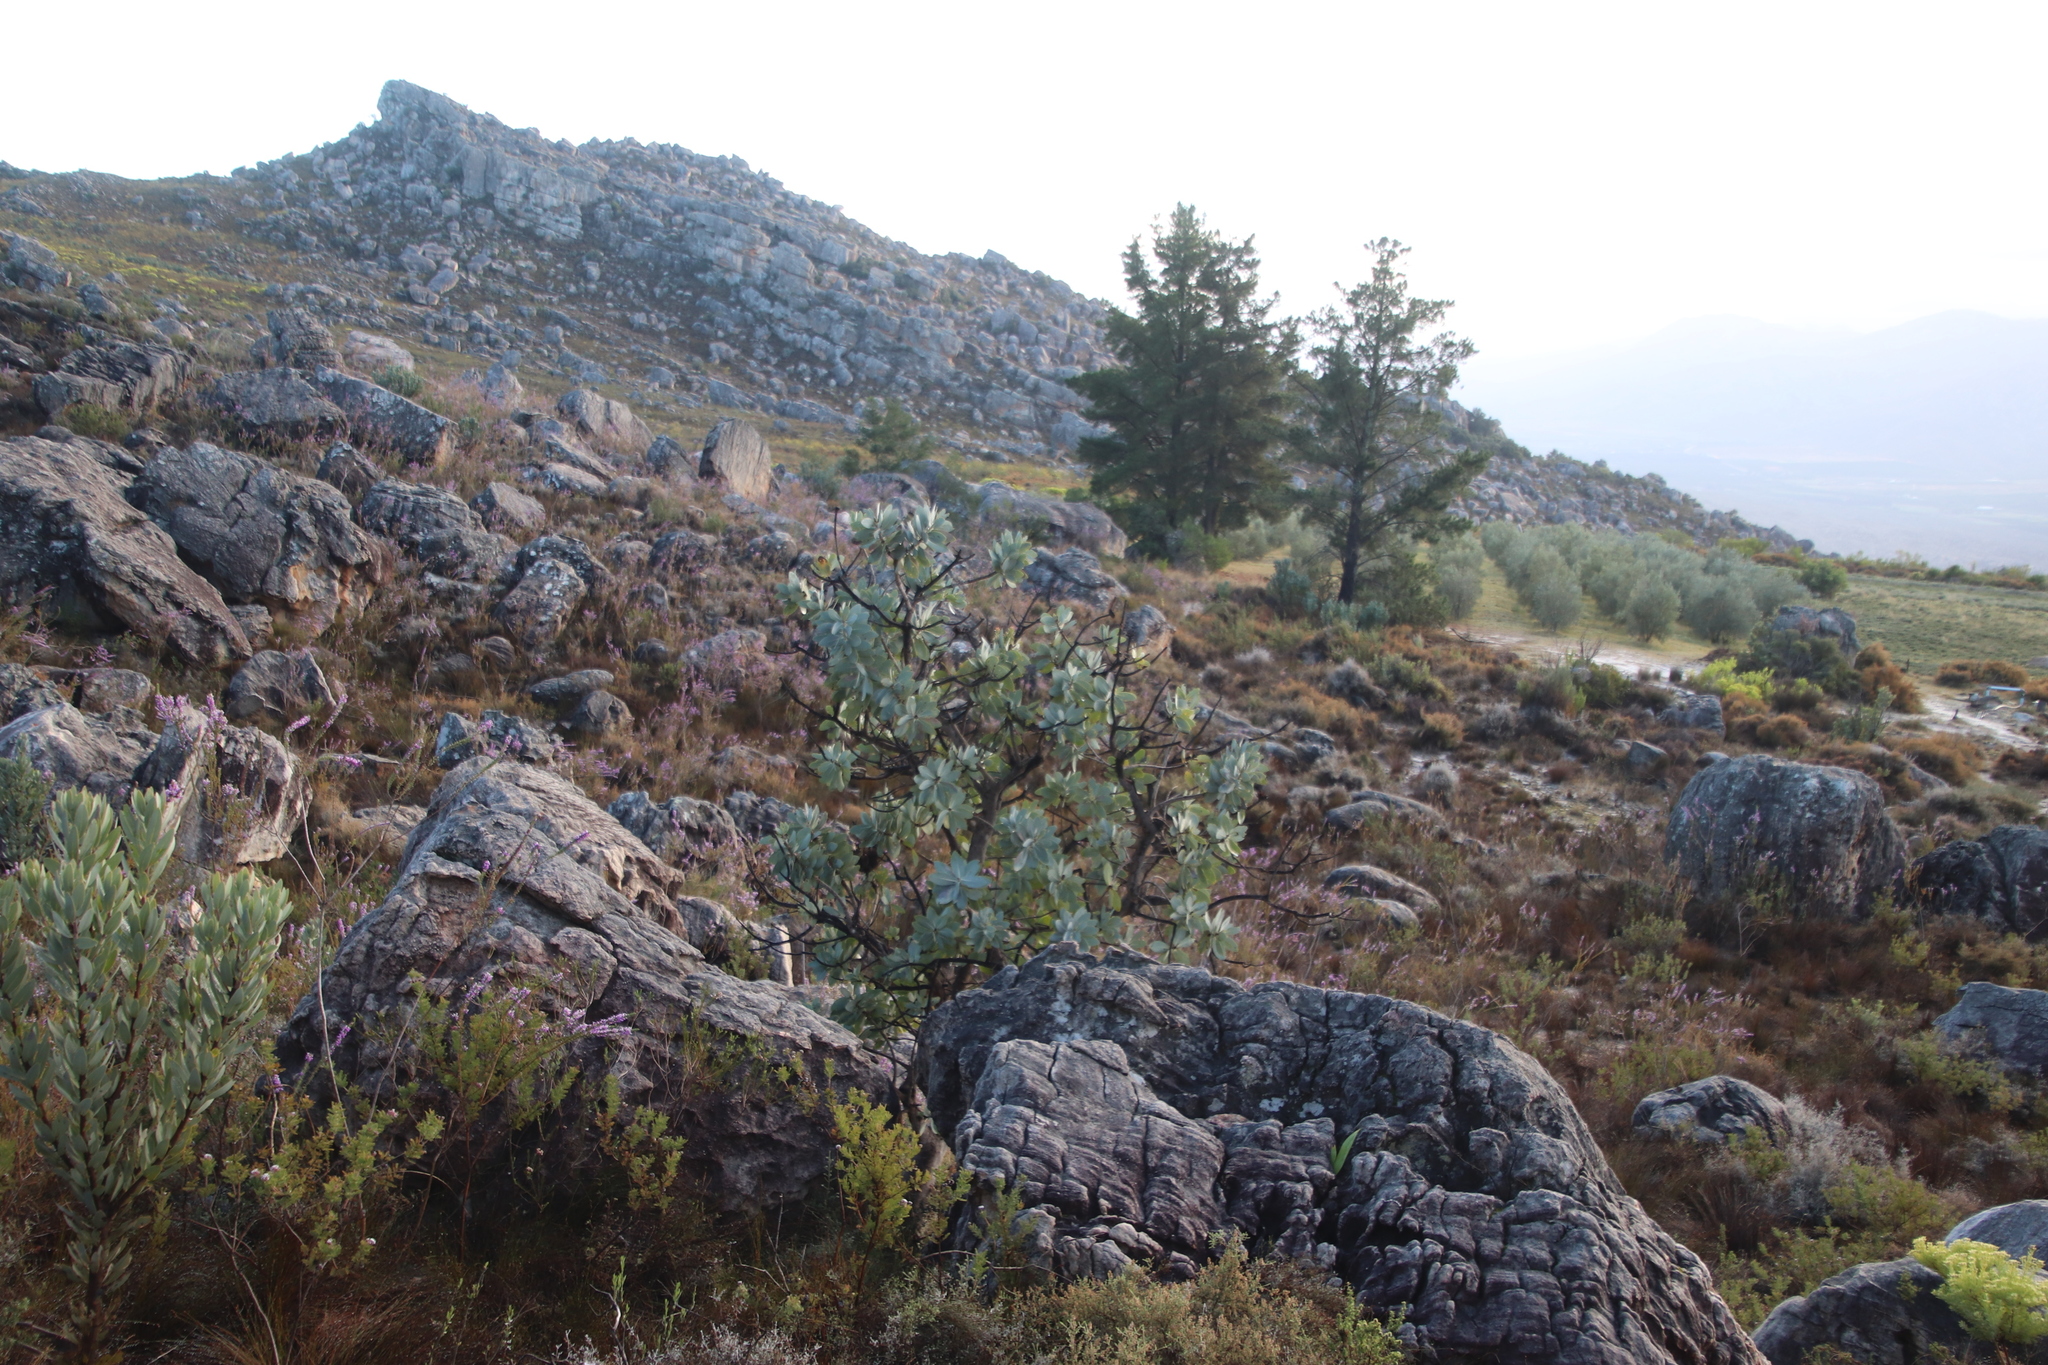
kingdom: Plantae
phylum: Tracheophyta
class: Magnoliopsida
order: Proteales
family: Proteaceae
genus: Protea
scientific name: Protea nitida
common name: Tree protea
